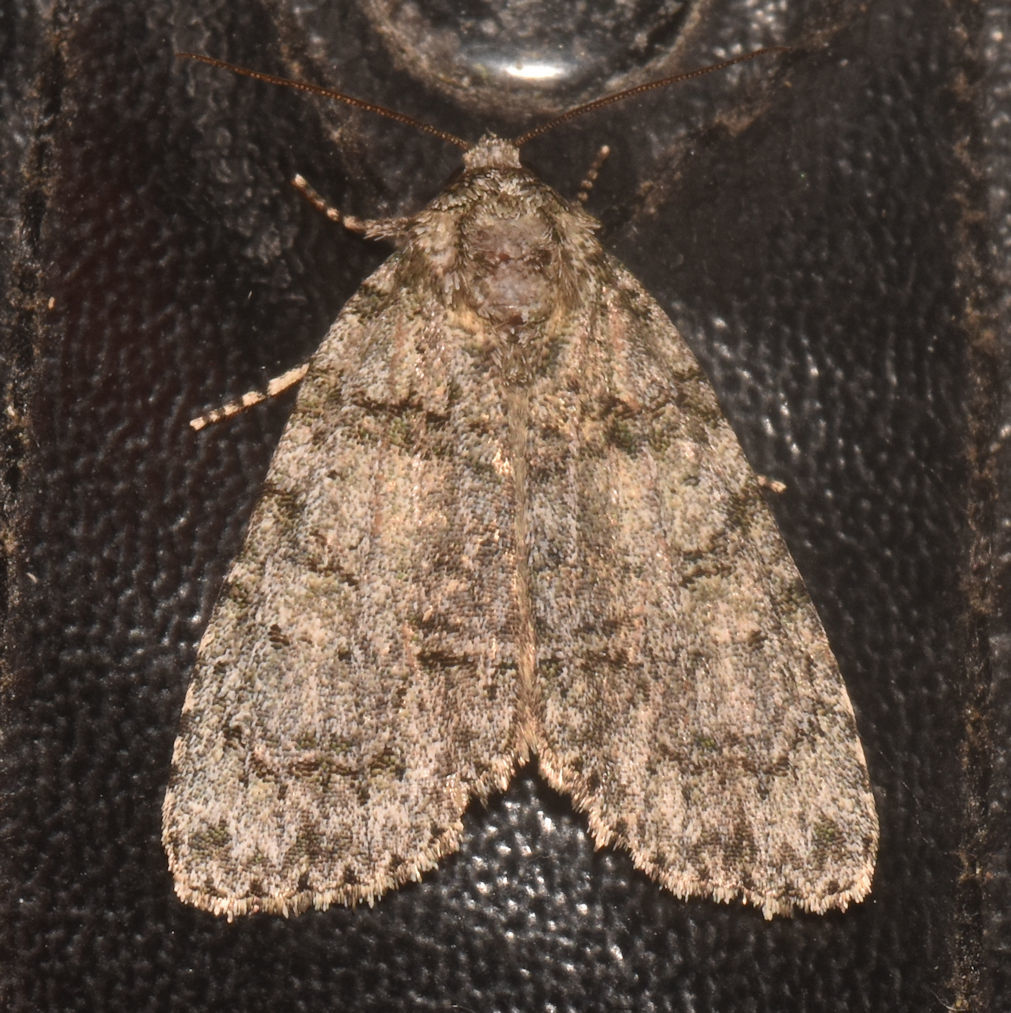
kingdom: Animalia
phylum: Arthropoda
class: Insecta
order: Lepidoptera
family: Noctuidae
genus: Acronicta
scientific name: Acronicta tristis
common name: Sad dagger
